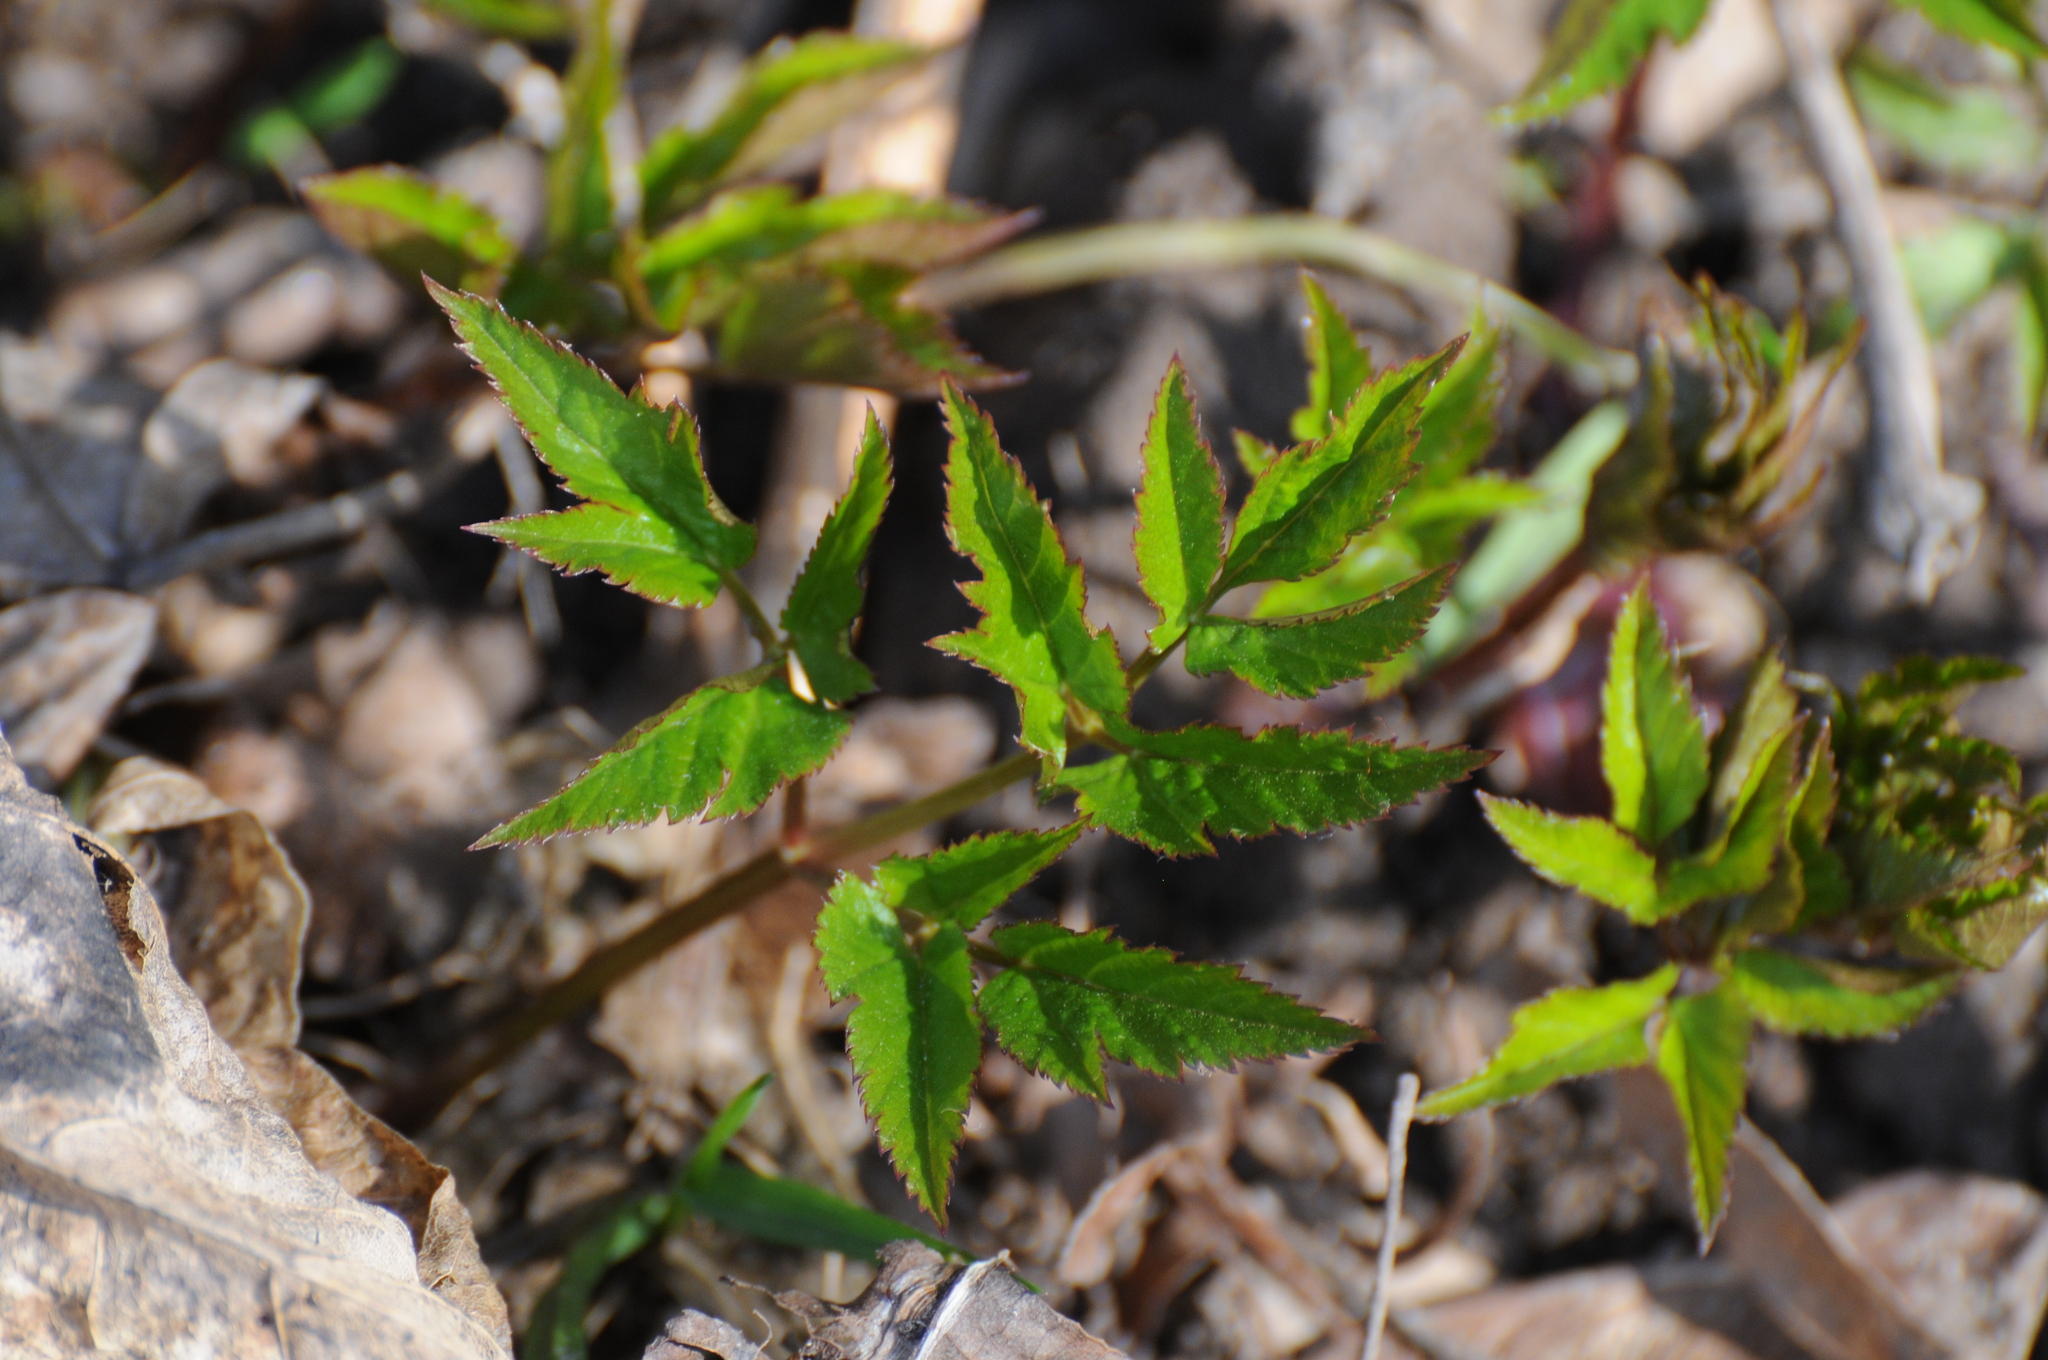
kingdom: Plantae
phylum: Tracheophyta
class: Magnoliopsida
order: Apiales
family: Apiaceae
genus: Aegopodium
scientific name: Aegopodium podagraria
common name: Ground-elder
